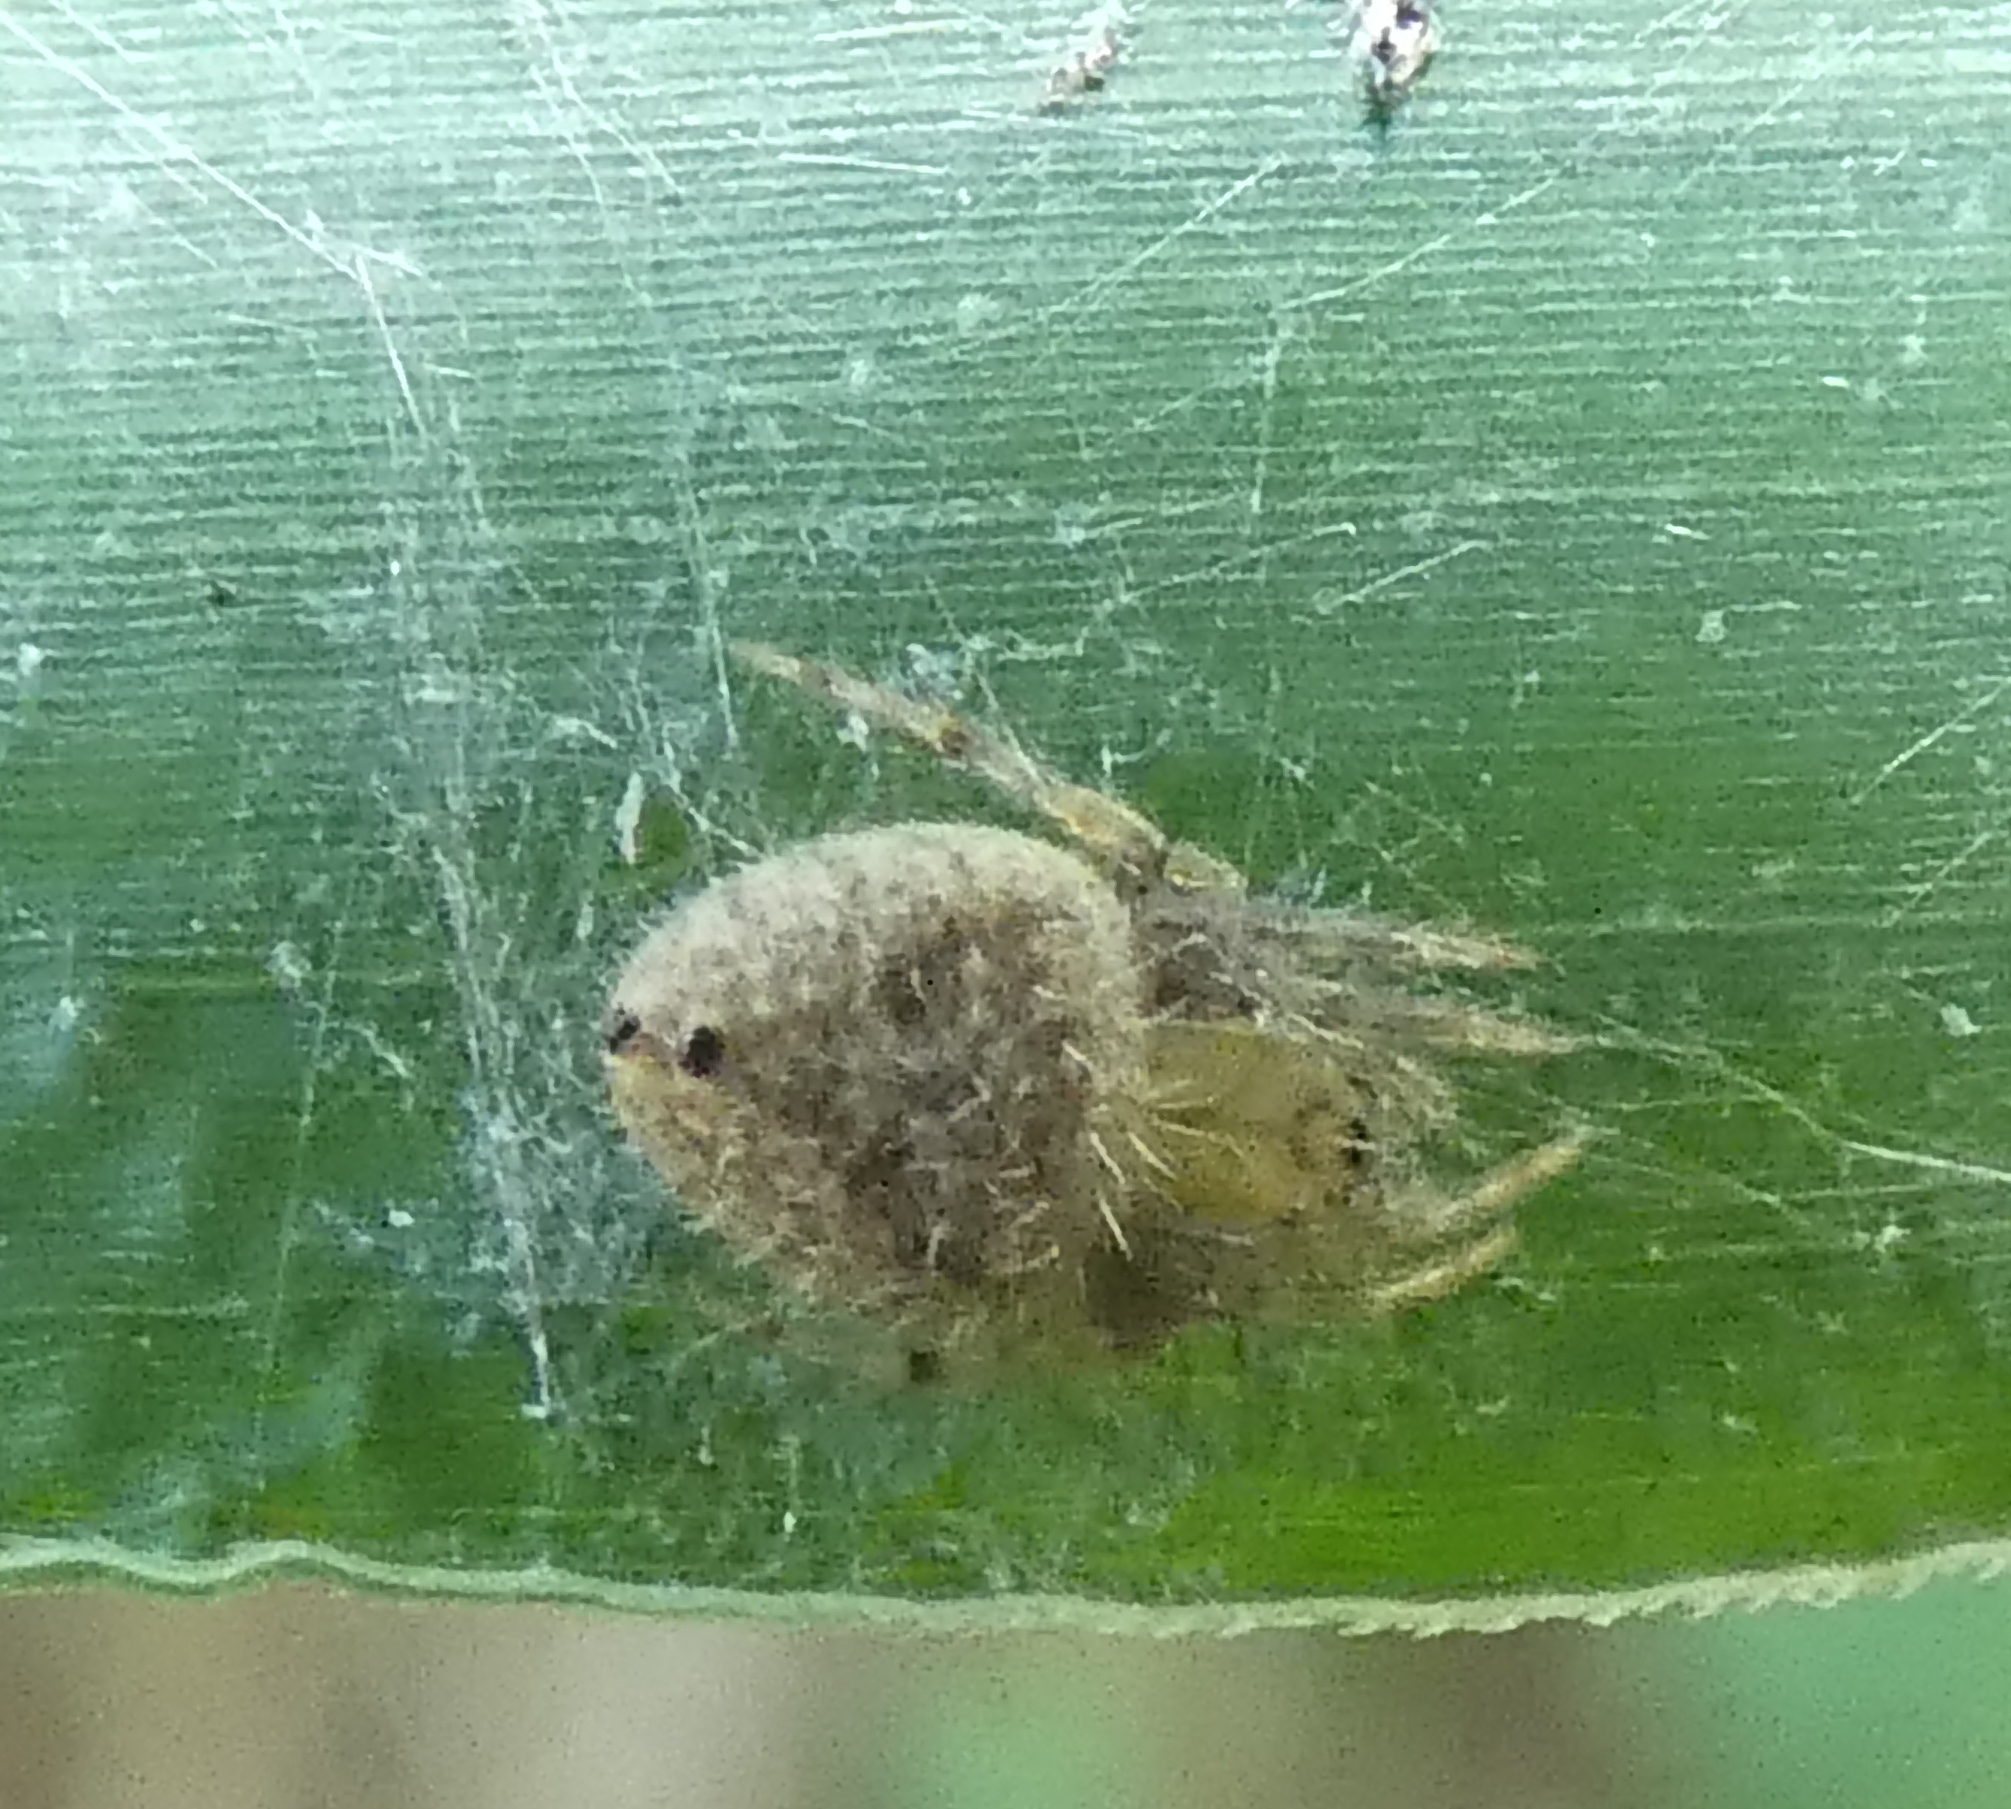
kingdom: Animalia
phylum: Arthropoda
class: Arachnida
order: Araneae
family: Araneidae
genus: Eriophora
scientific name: Eriophora edax
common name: Orb weavers
